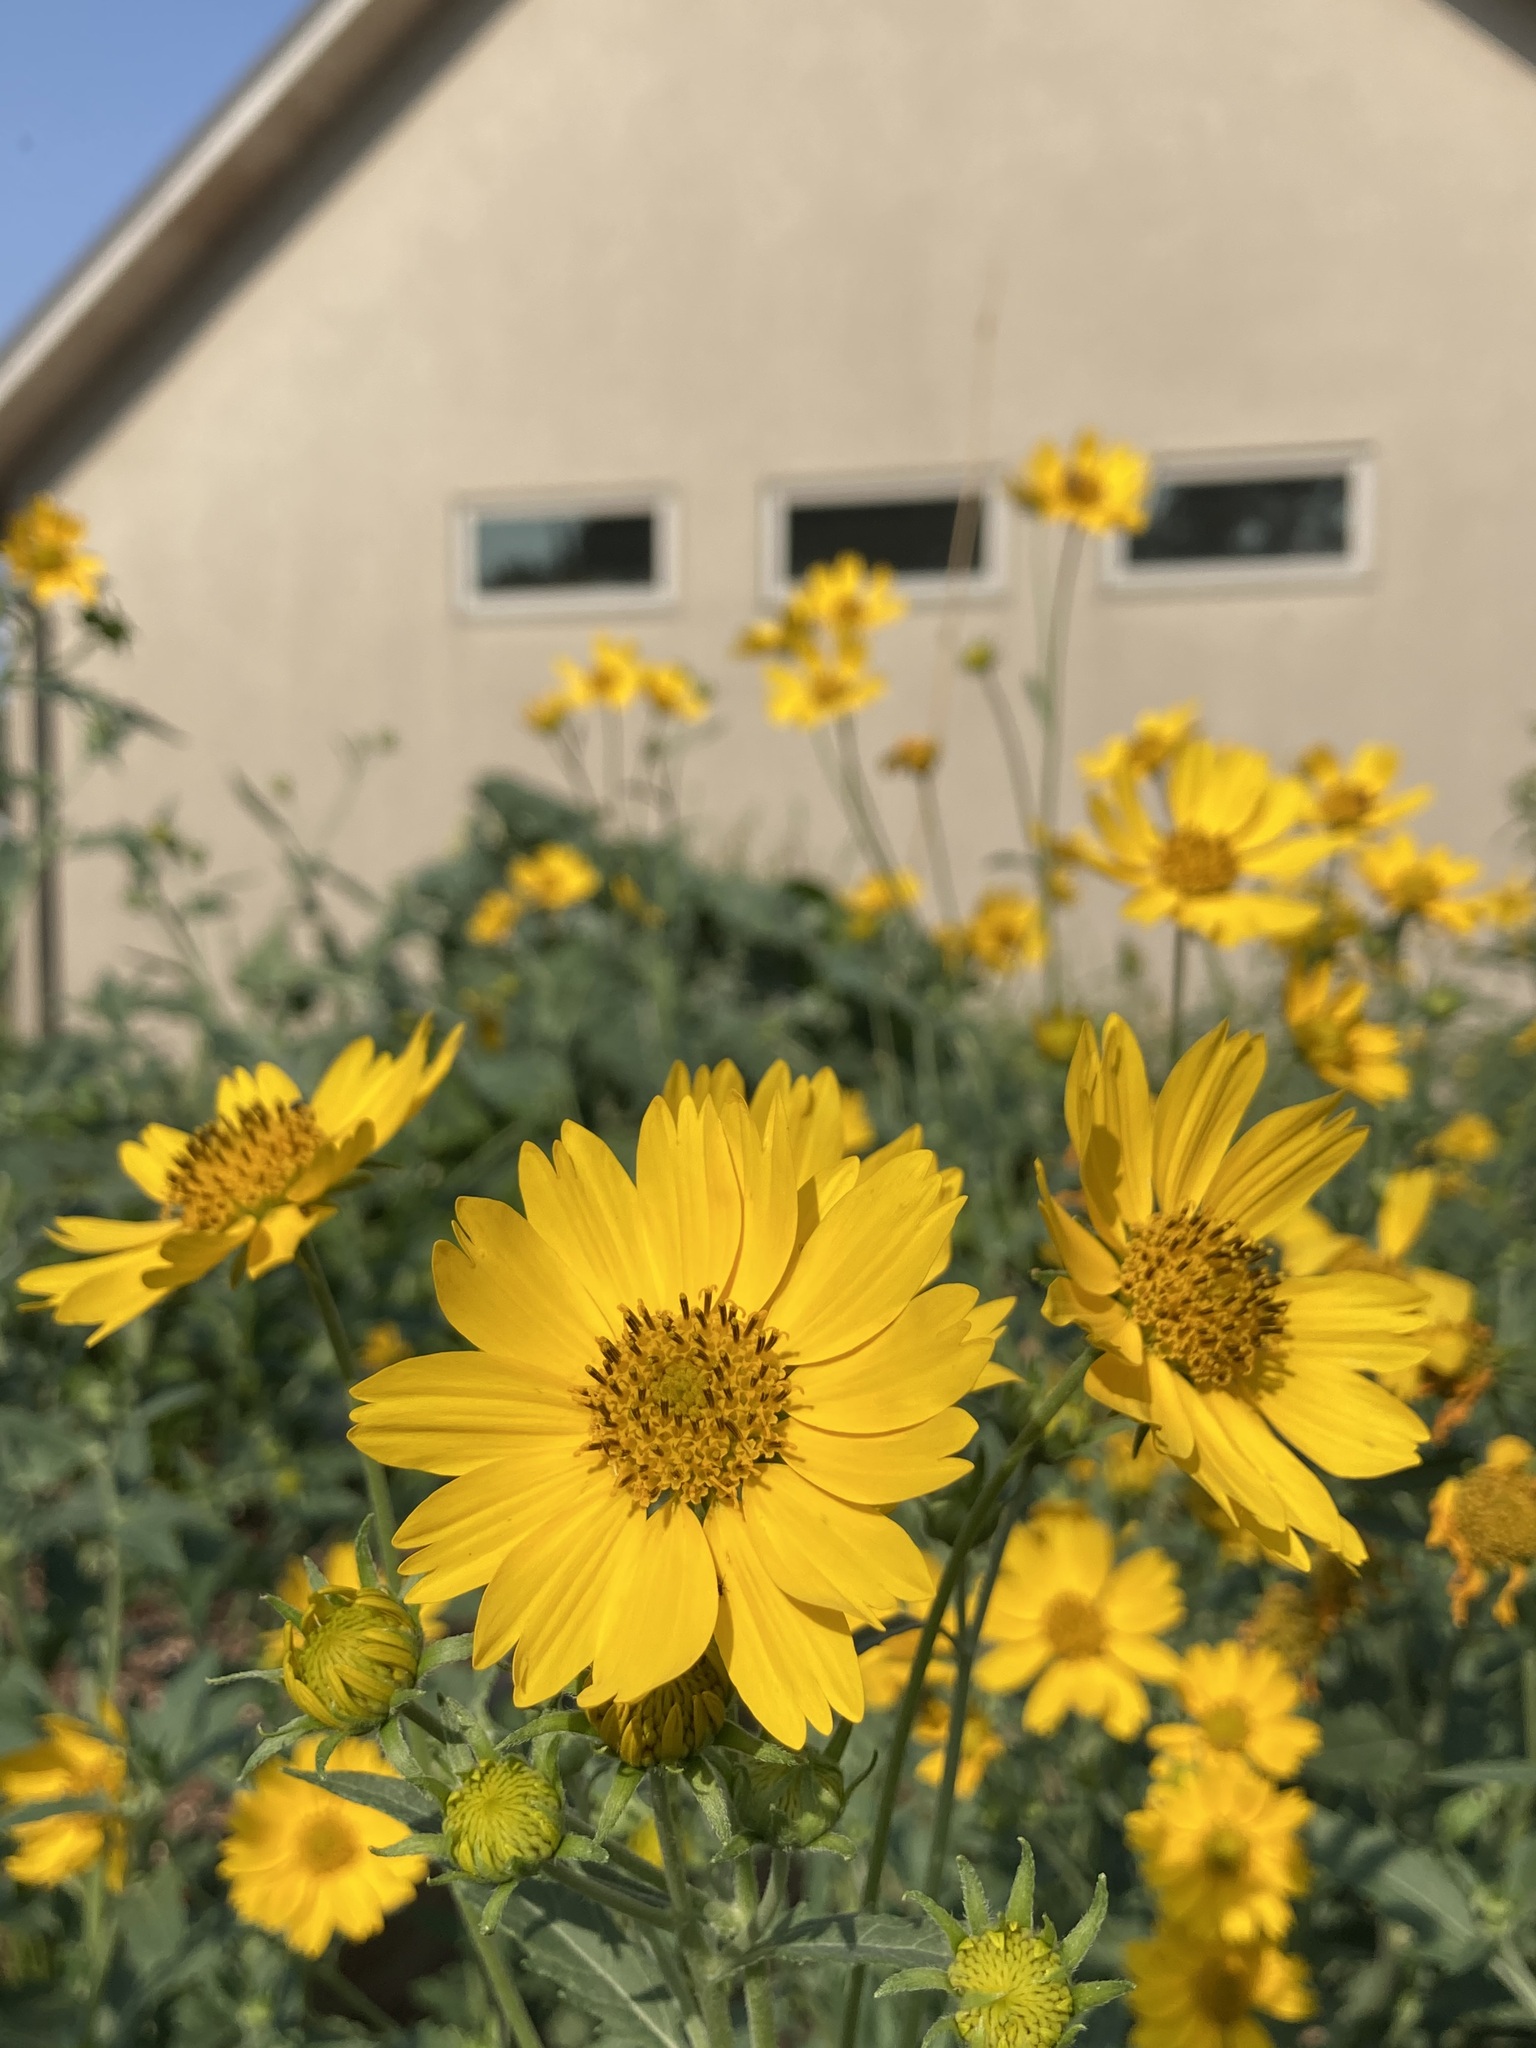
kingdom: Plantae
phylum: Tracheophyta
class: Magnoliopsida
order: Asterales
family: Asteraceae
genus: Verbesina
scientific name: Verbesina encelioides
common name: Golden crownbeard
